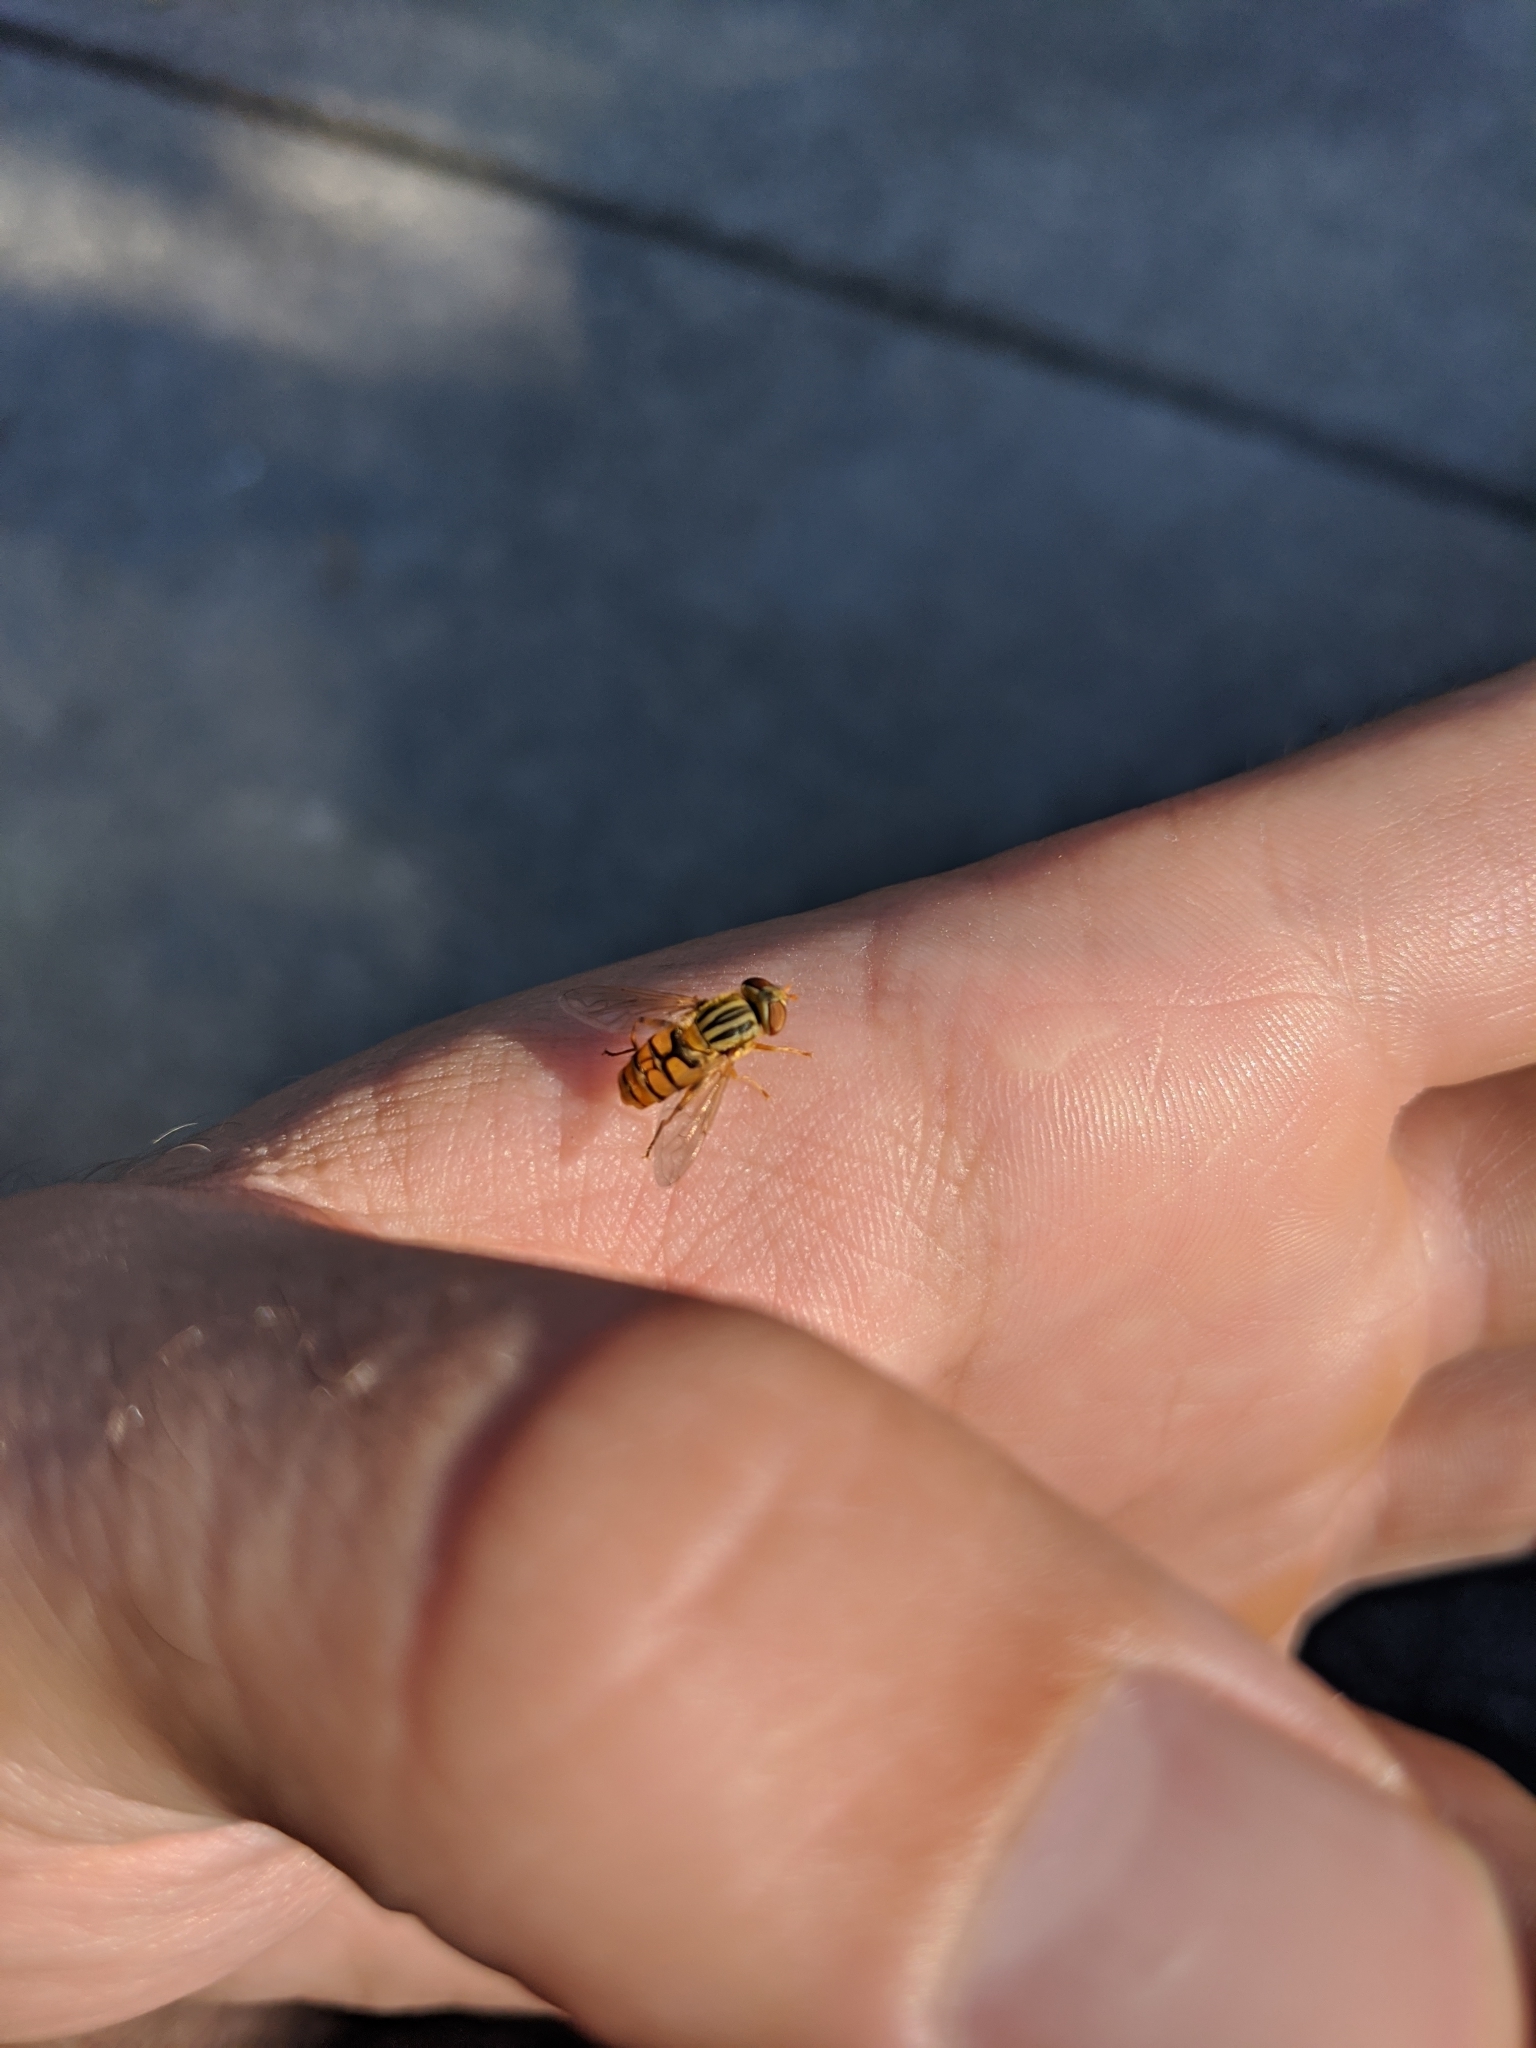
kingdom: Animalia
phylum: Arthropoda
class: Insecta
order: Diptera
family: Syrphidae
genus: Parhelophilus
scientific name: Parhelophilus laetus
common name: Common bog fly
